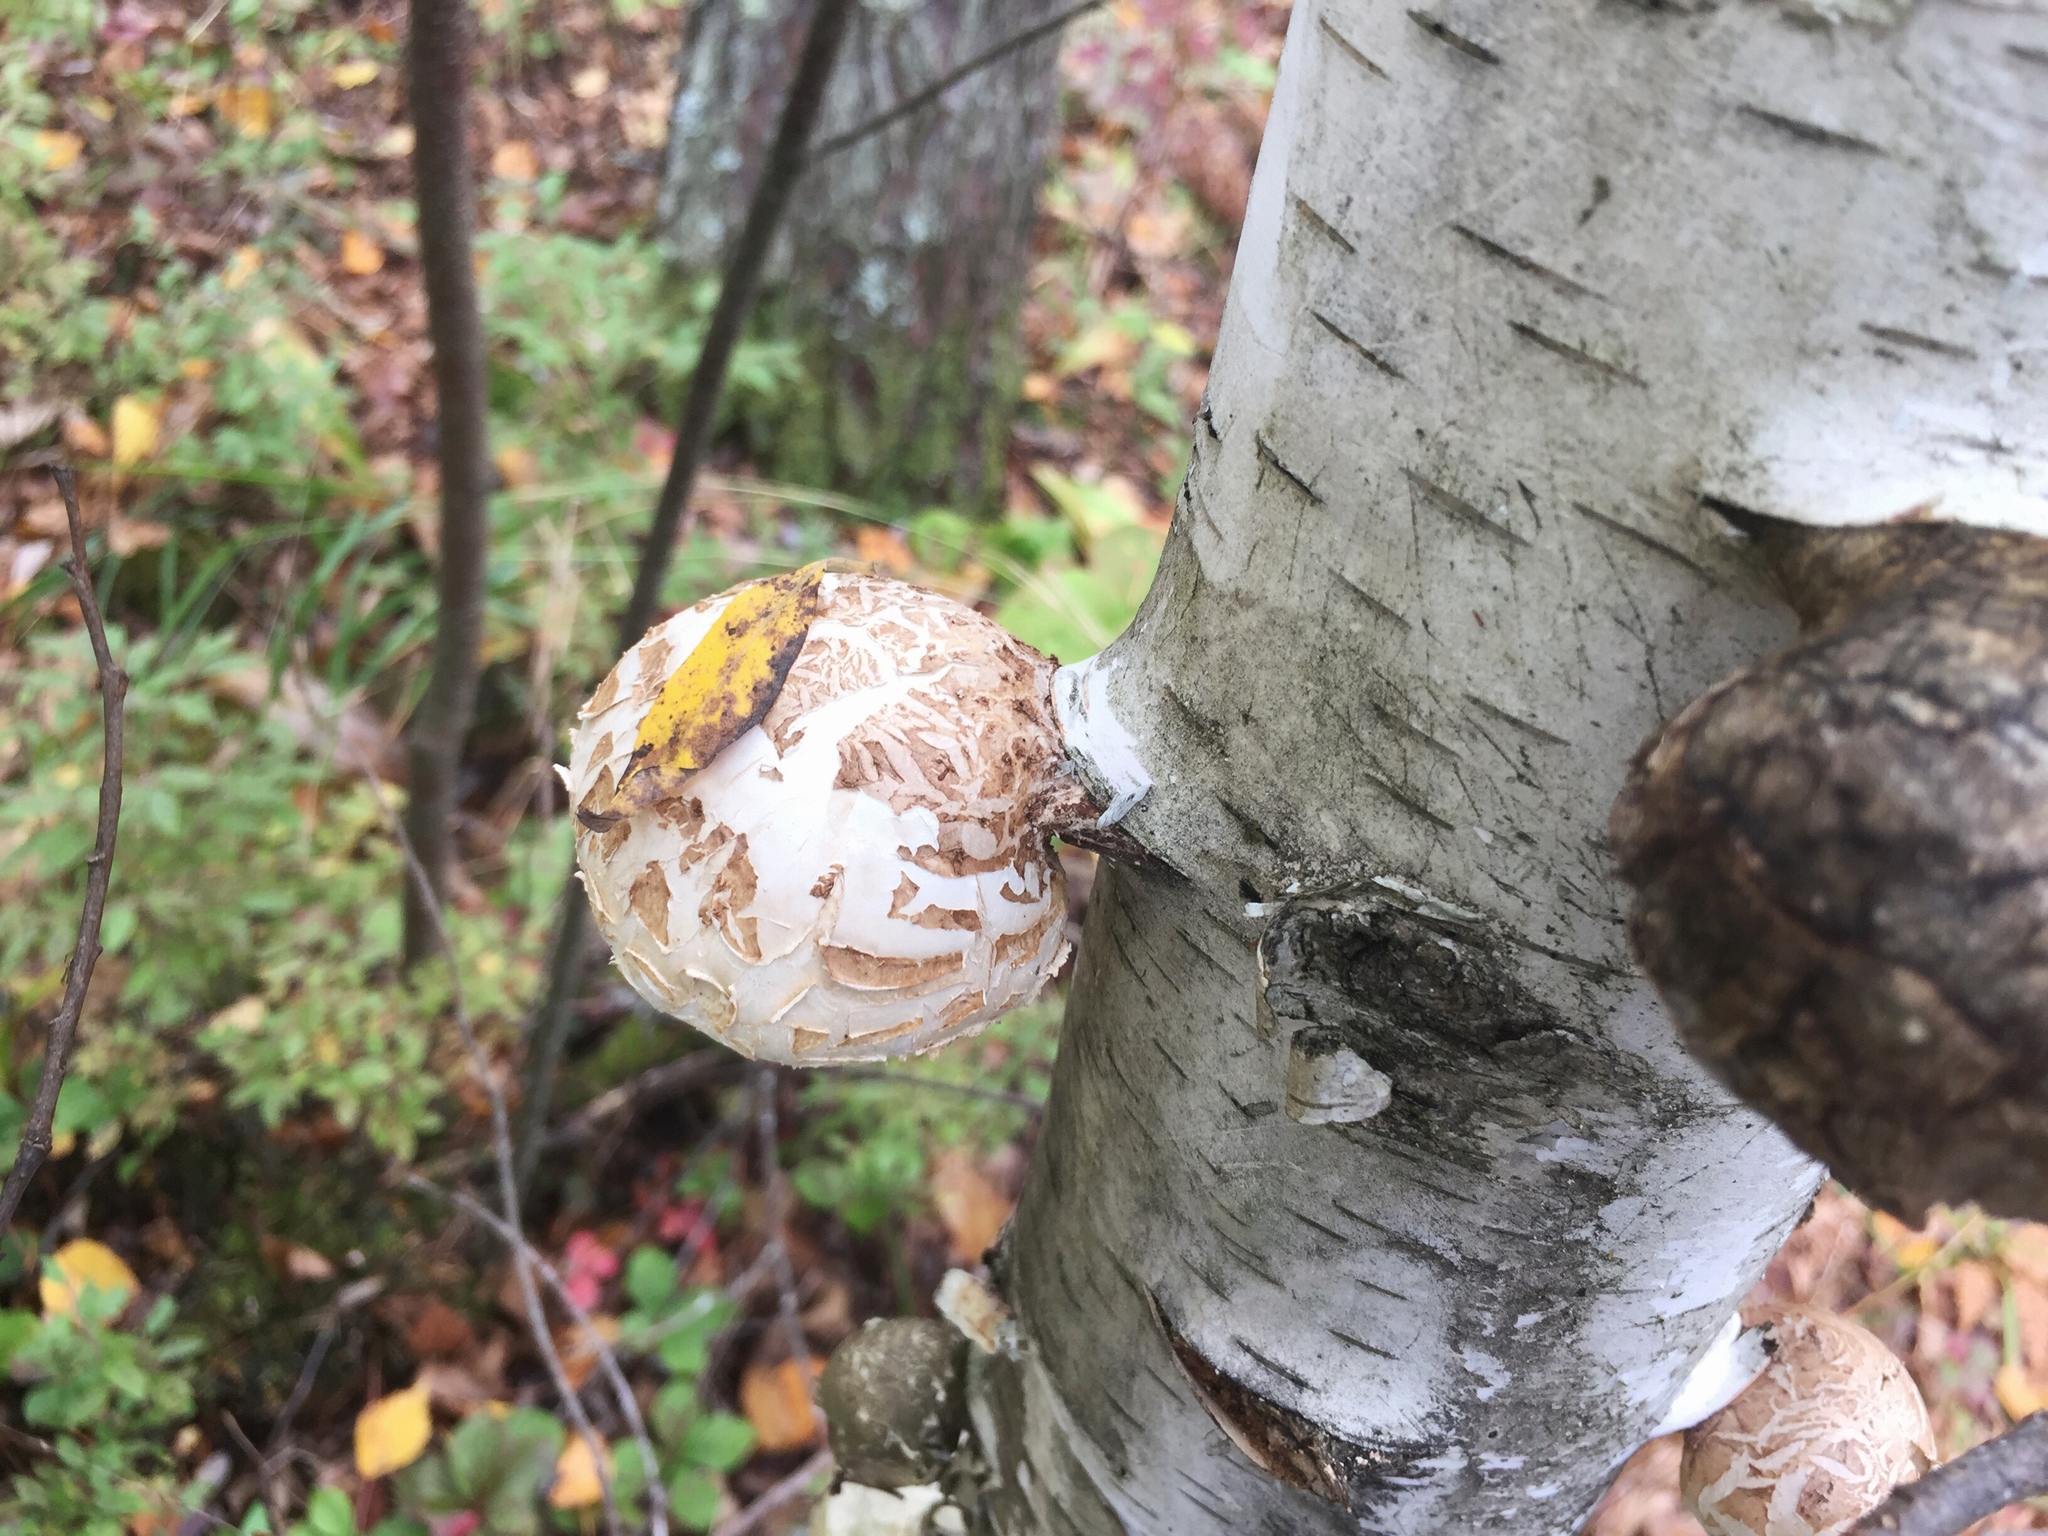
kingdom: Fungi
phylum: Basidiomycota
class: Agaricomycetes
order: Polyporales
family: Fomitopsidaceae
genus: Fomitopsis
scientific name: Fomitopsis betulina
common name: Birch polypore
